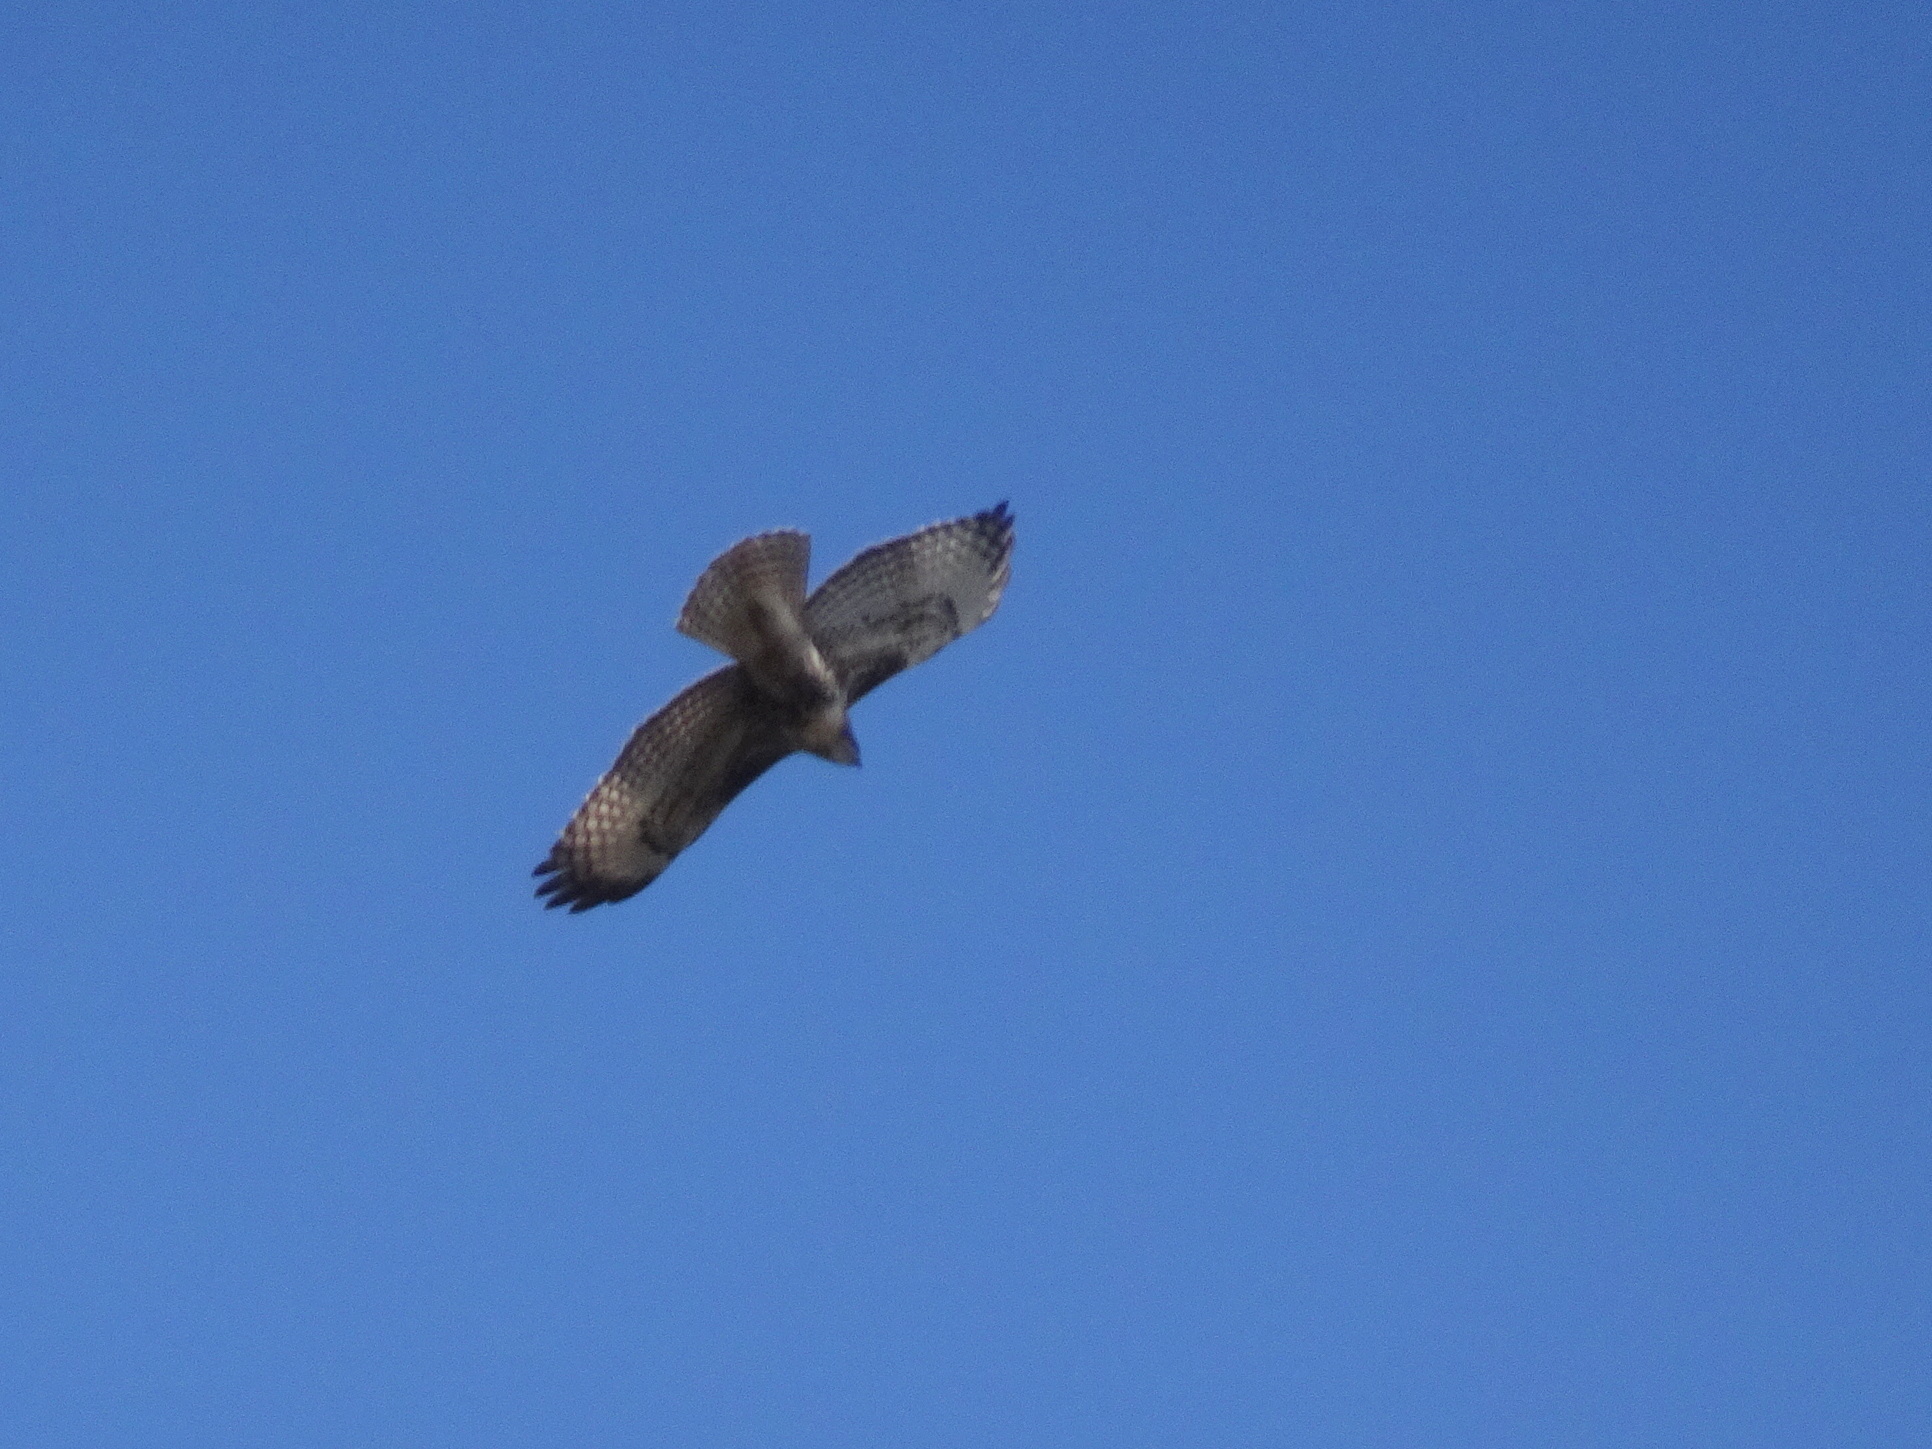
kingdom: Animalia
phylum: Chordata
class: Aves
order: Accipitriformes
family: Accipitridae
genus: Buteo
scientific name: Buteo jamaicensis
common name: Red-tailed hawk
